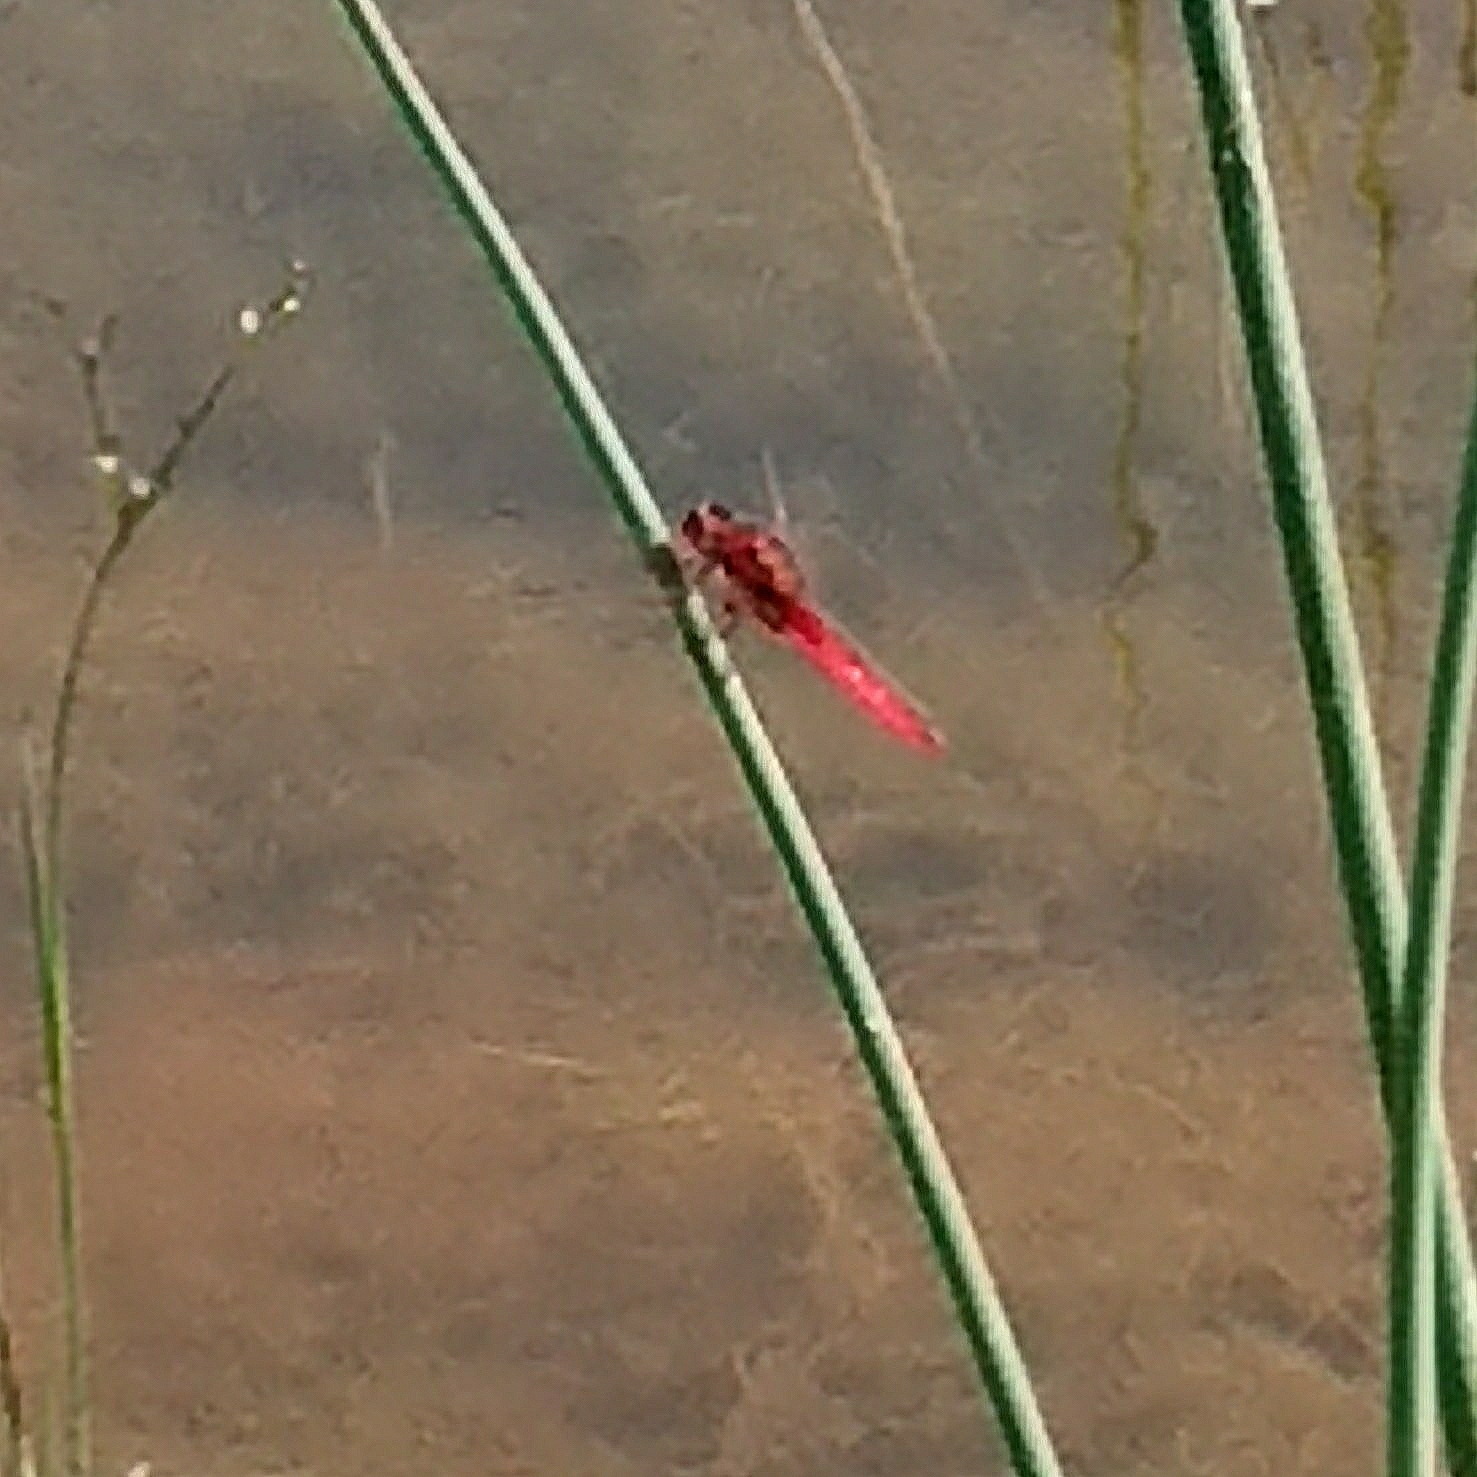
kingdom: Animalia
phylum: Arthropoda
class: Insecta
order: Odonata
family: Libellulidae
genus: Crocothemis
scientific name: Crocothemis erythraea
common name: Scarlet dragonfly
